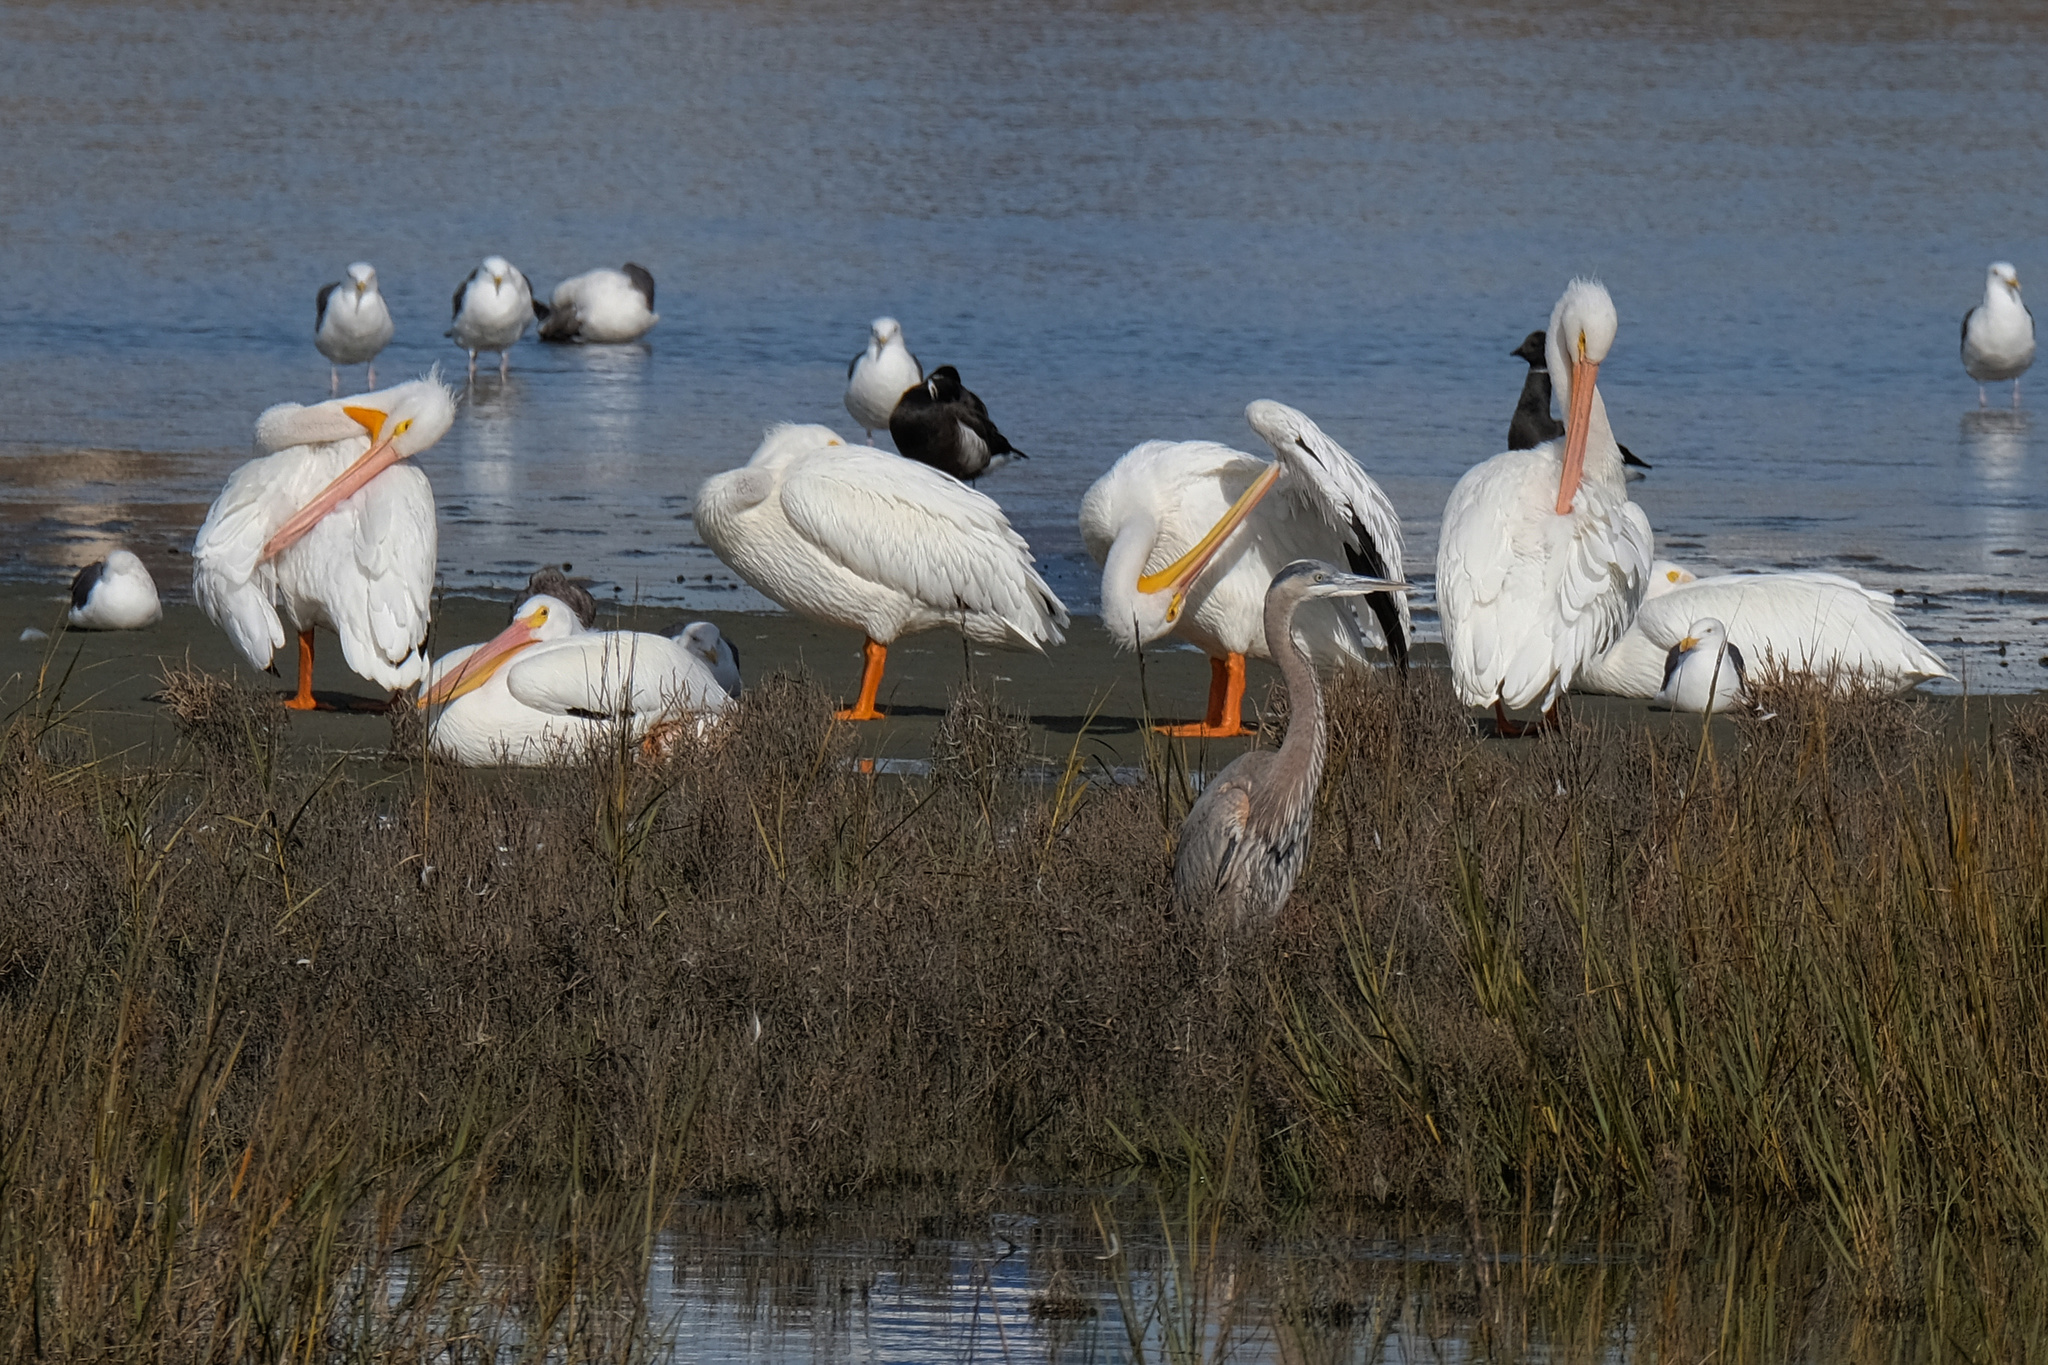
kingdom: Animalia
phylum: Chordata
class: Aves
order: Pelecaniformes
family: Pelecanidae
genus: Pelecanus
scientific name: Pelecanus erythrorhynchos
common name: American white pelican
